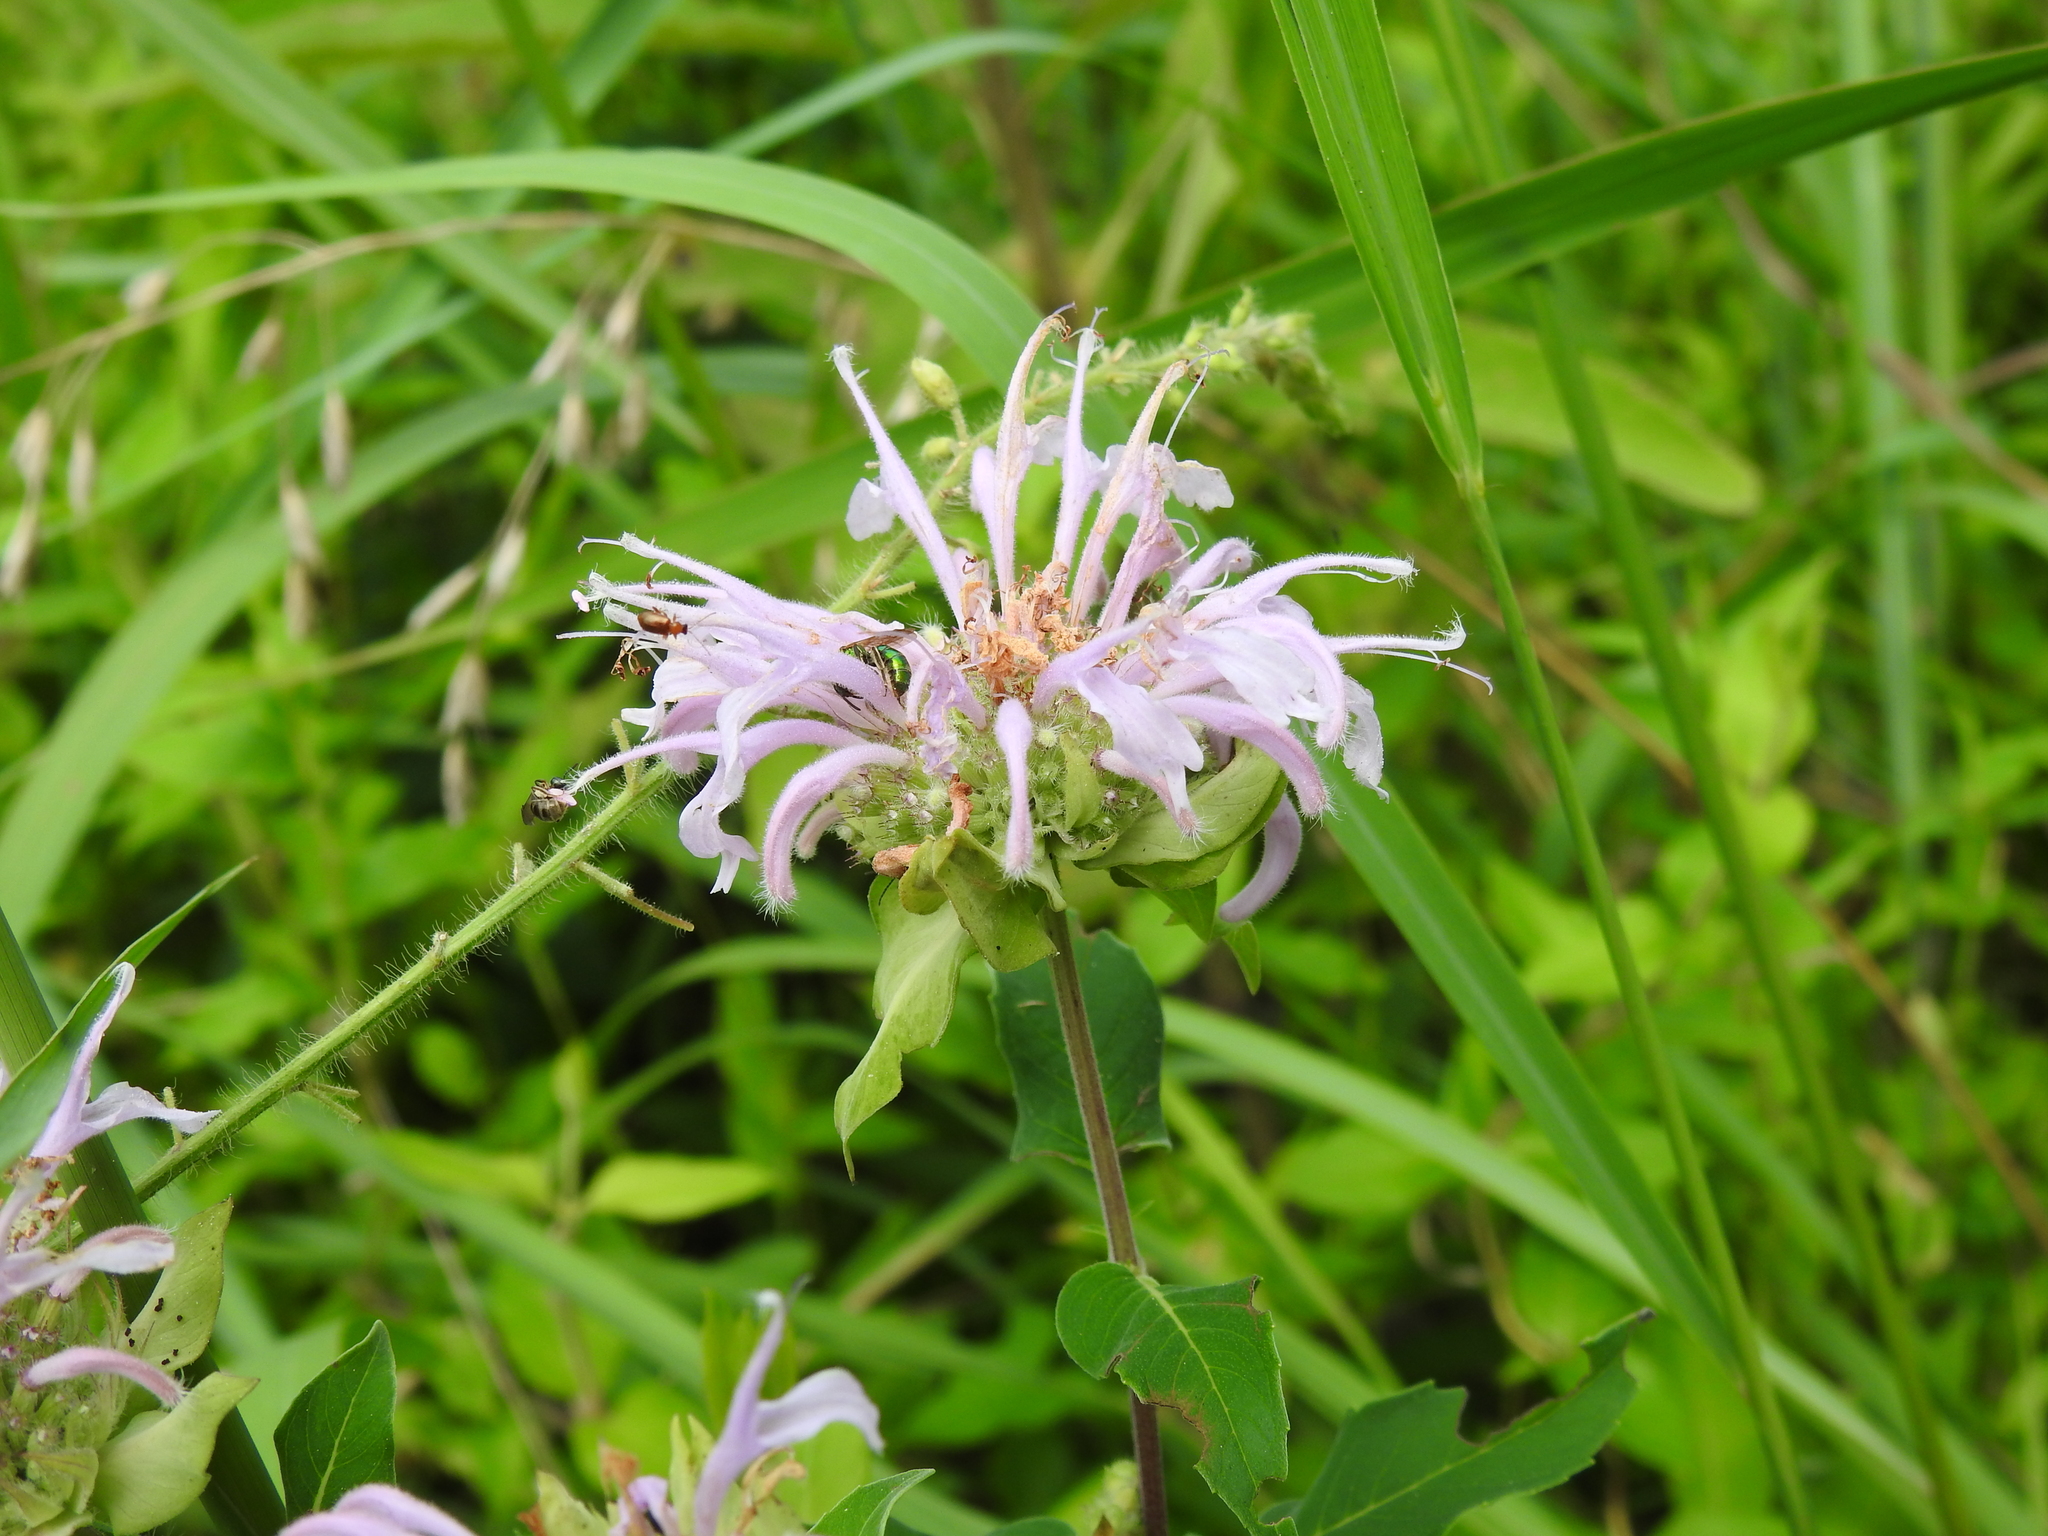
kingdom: Plantae
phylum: Tracheophyta
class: Magnoliopsida
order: Lamiales
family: Lamiaceae
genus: Monarda
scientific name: Monarda fistulosa
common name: Purple beebalm
